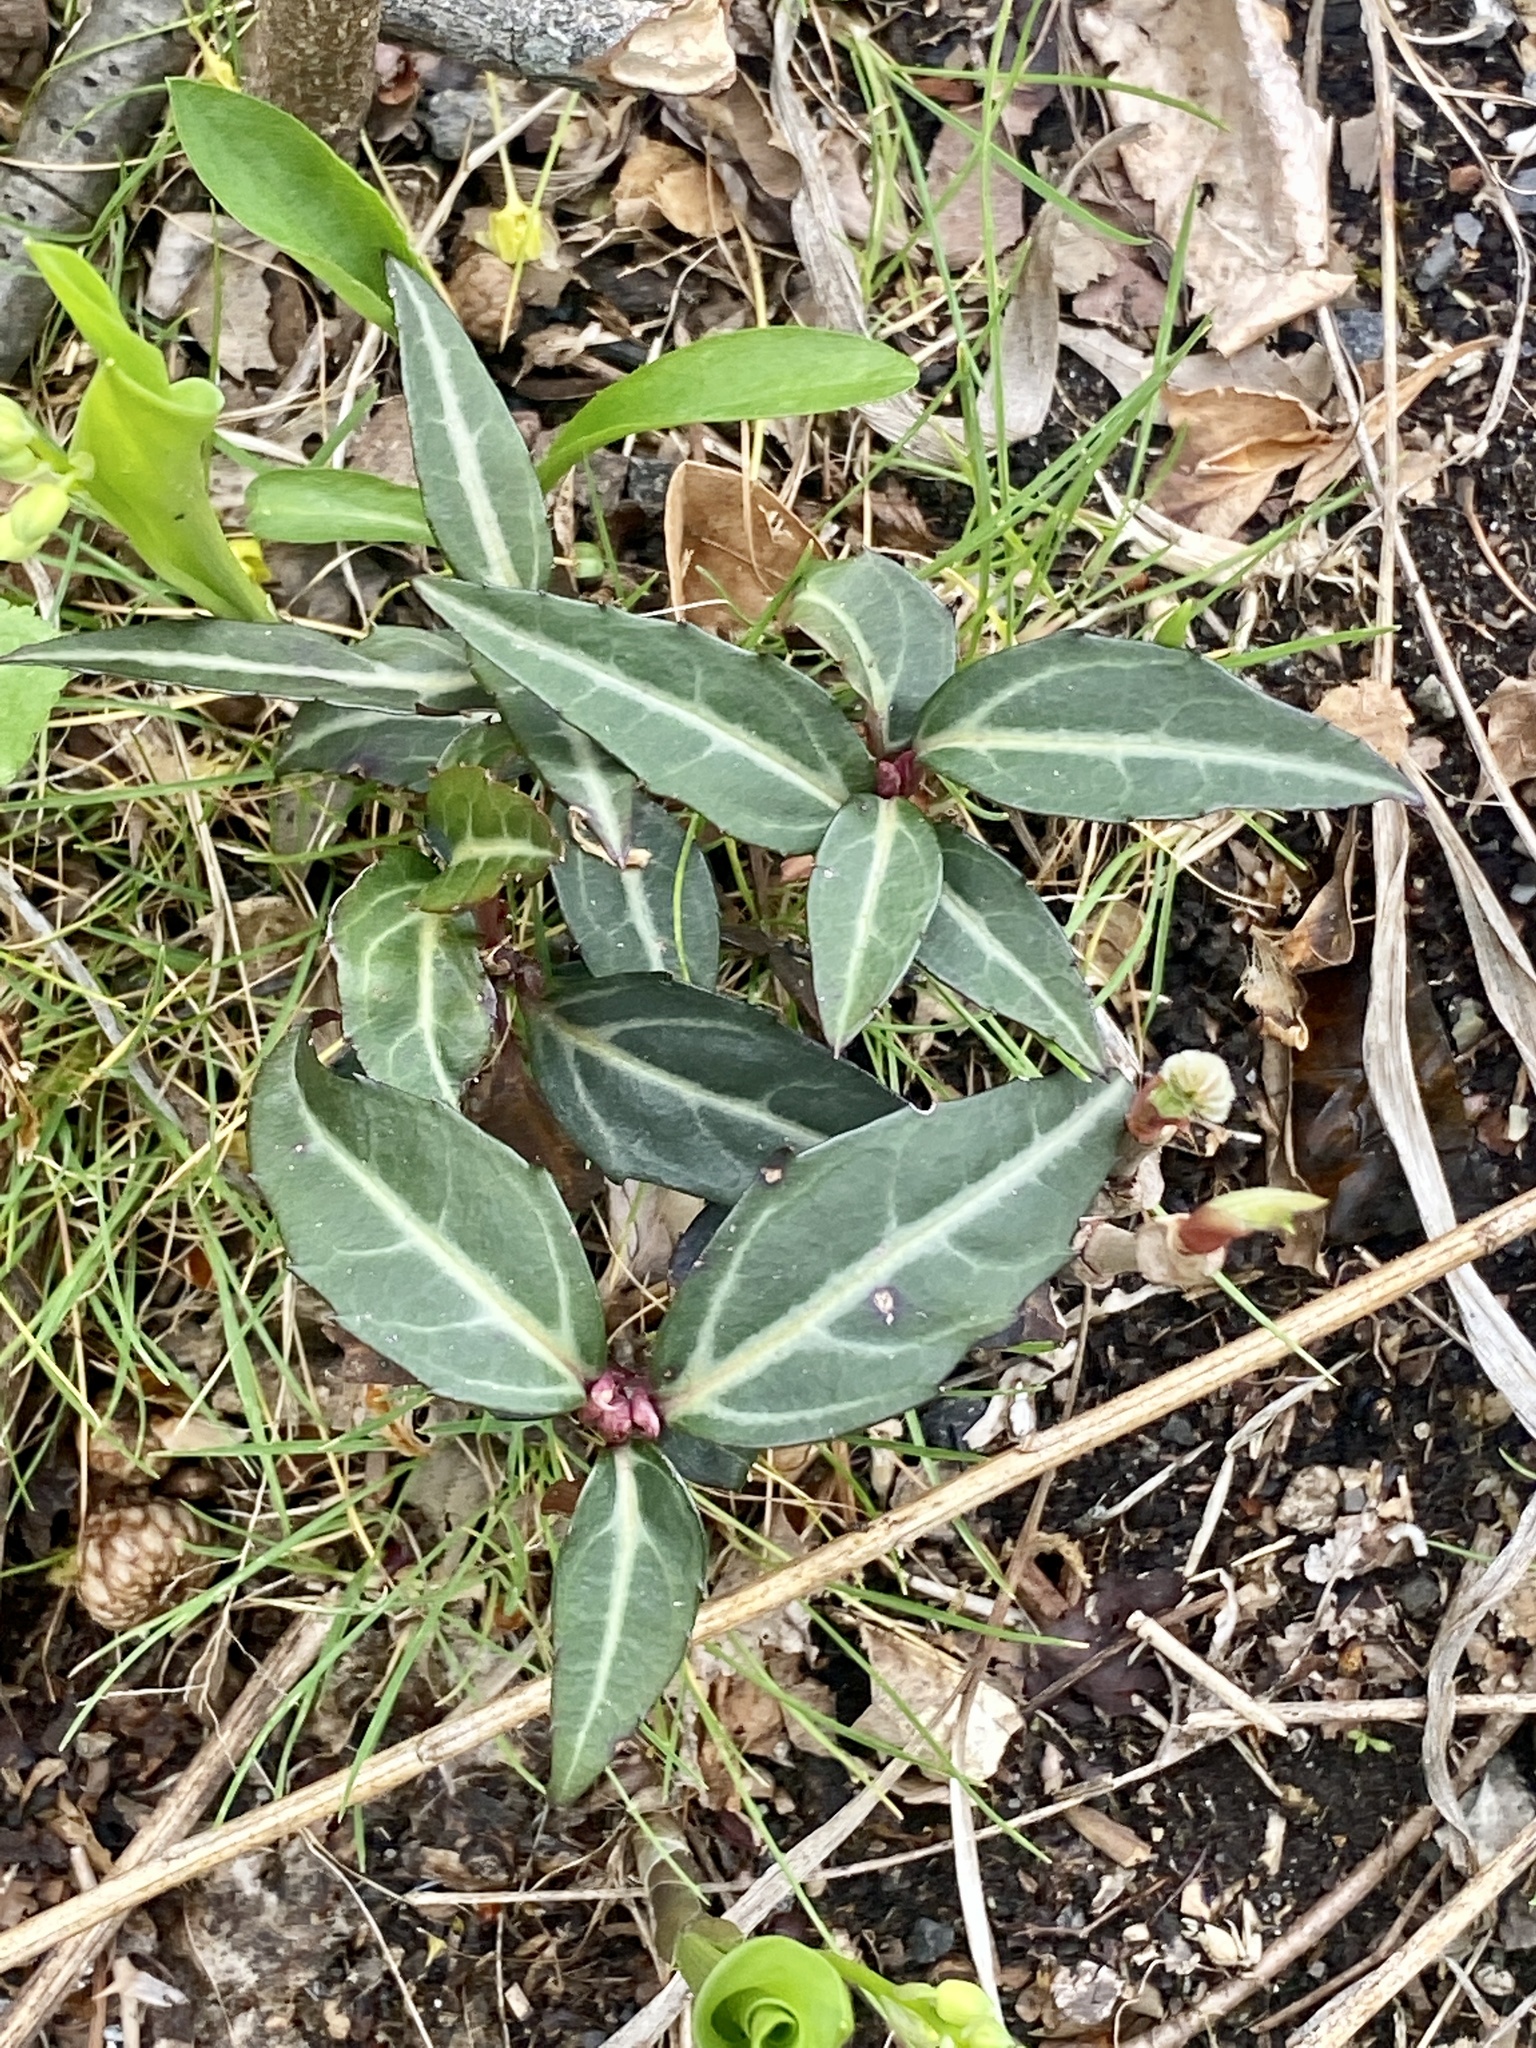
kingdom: Plantae
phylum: Tracheophyta
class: Magnoliopsida
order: Ericales
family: Ericaceae
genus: Chimaphila
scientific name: Chimaphila maculata
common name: Spotted pipsissewa
